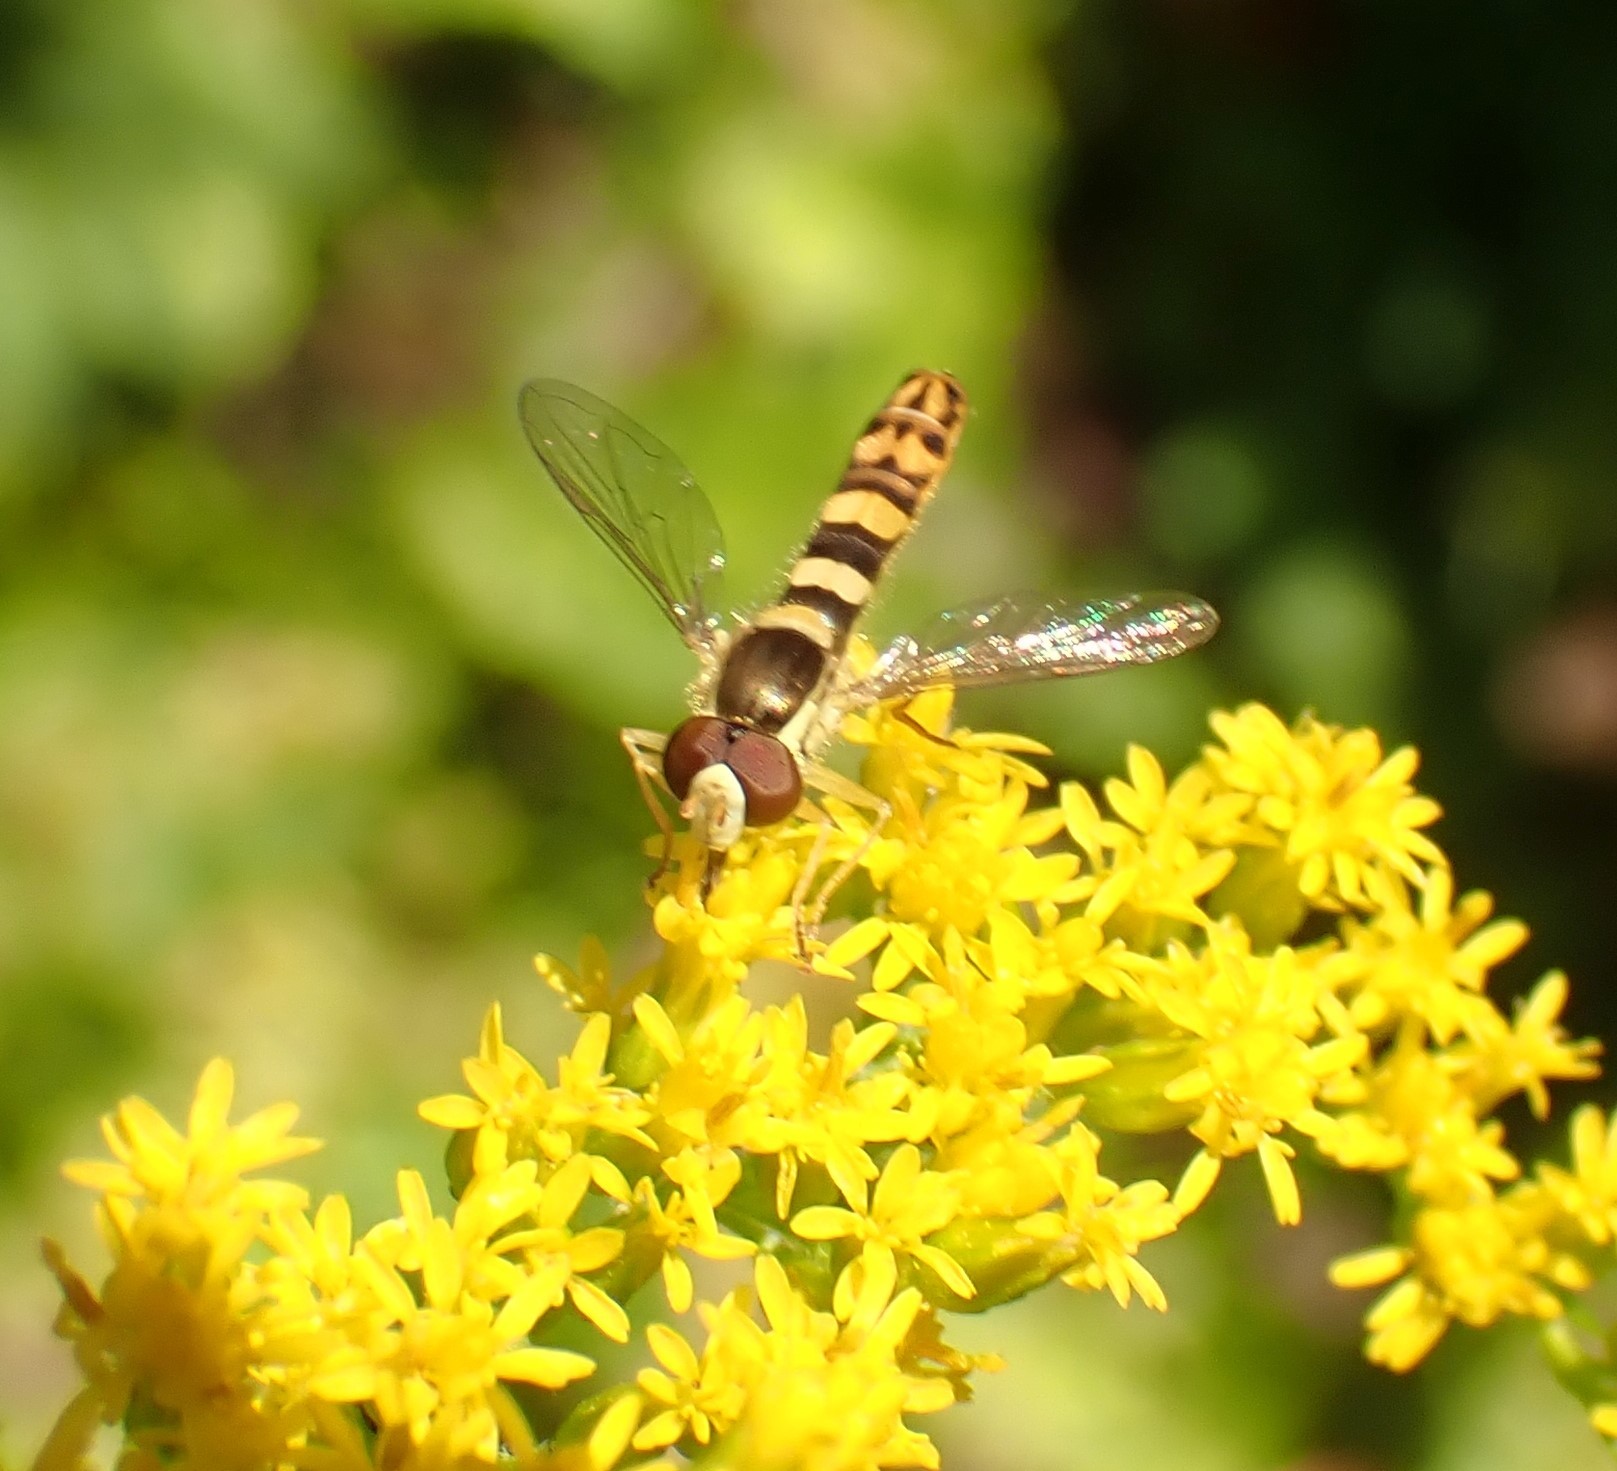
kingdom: Animalia
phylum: Arthropoda
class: Insecta
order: Diptera
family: Syrphidae
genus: Sphaerophoria
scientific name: Sphaerophoria scripta
